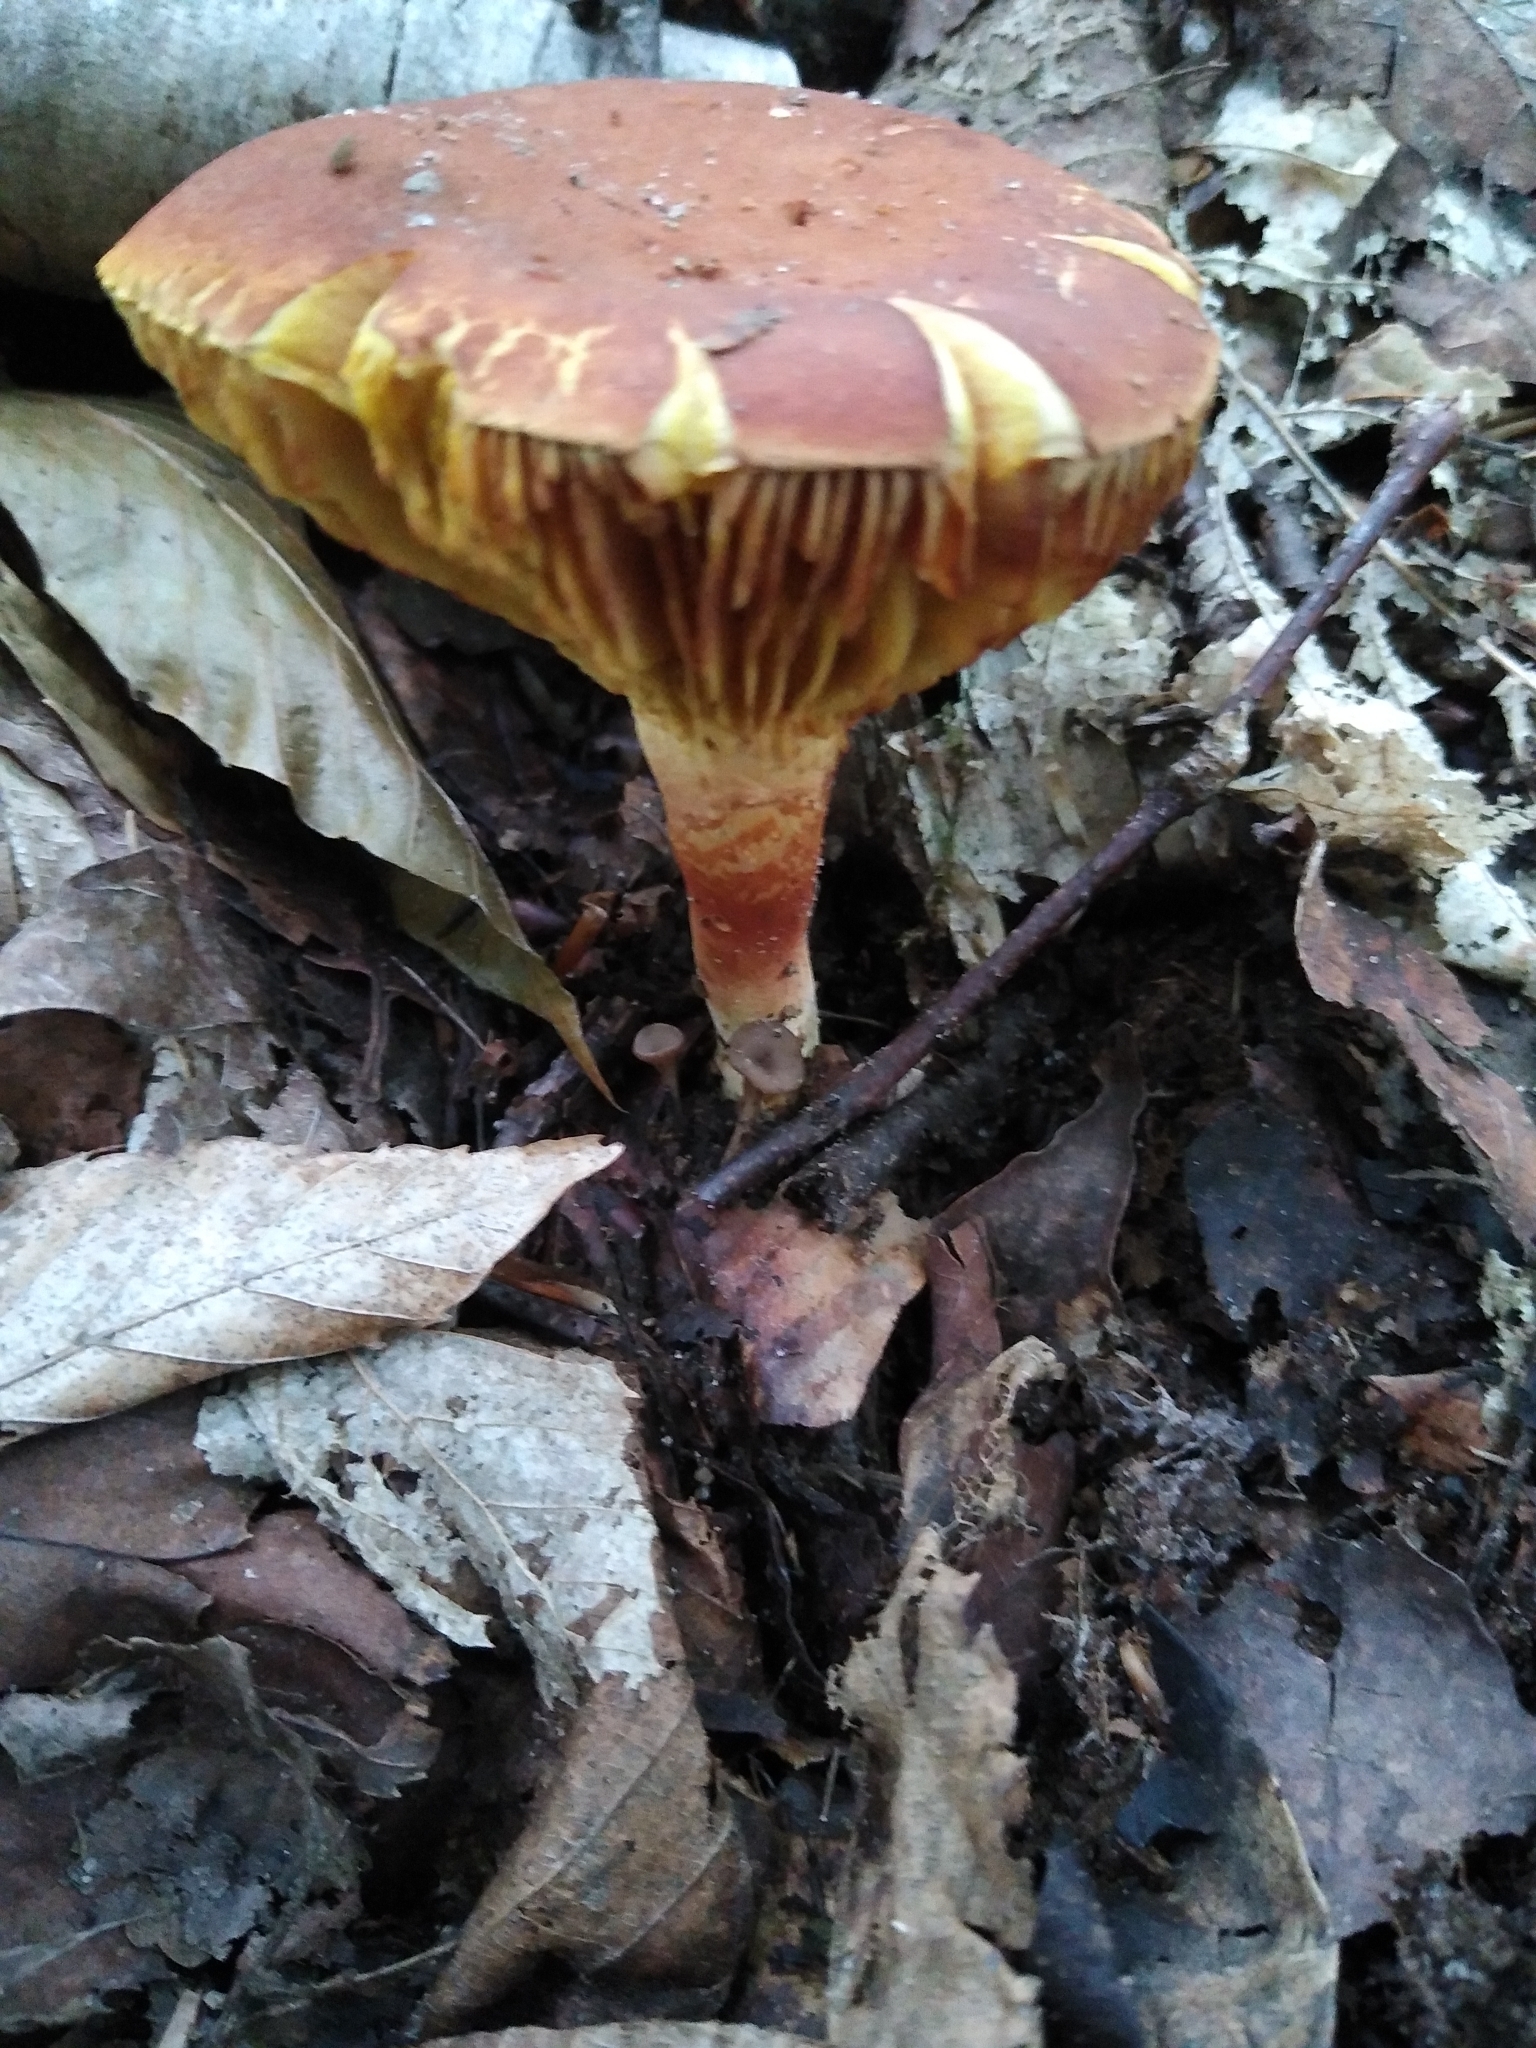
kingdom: Fungi
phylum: Basidiomycota
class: Agaricomycetes
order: Boletales
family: Boletaceae
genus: Phylloporus
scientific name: Phylloporus leucomycelinus
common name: Gilled bolete
